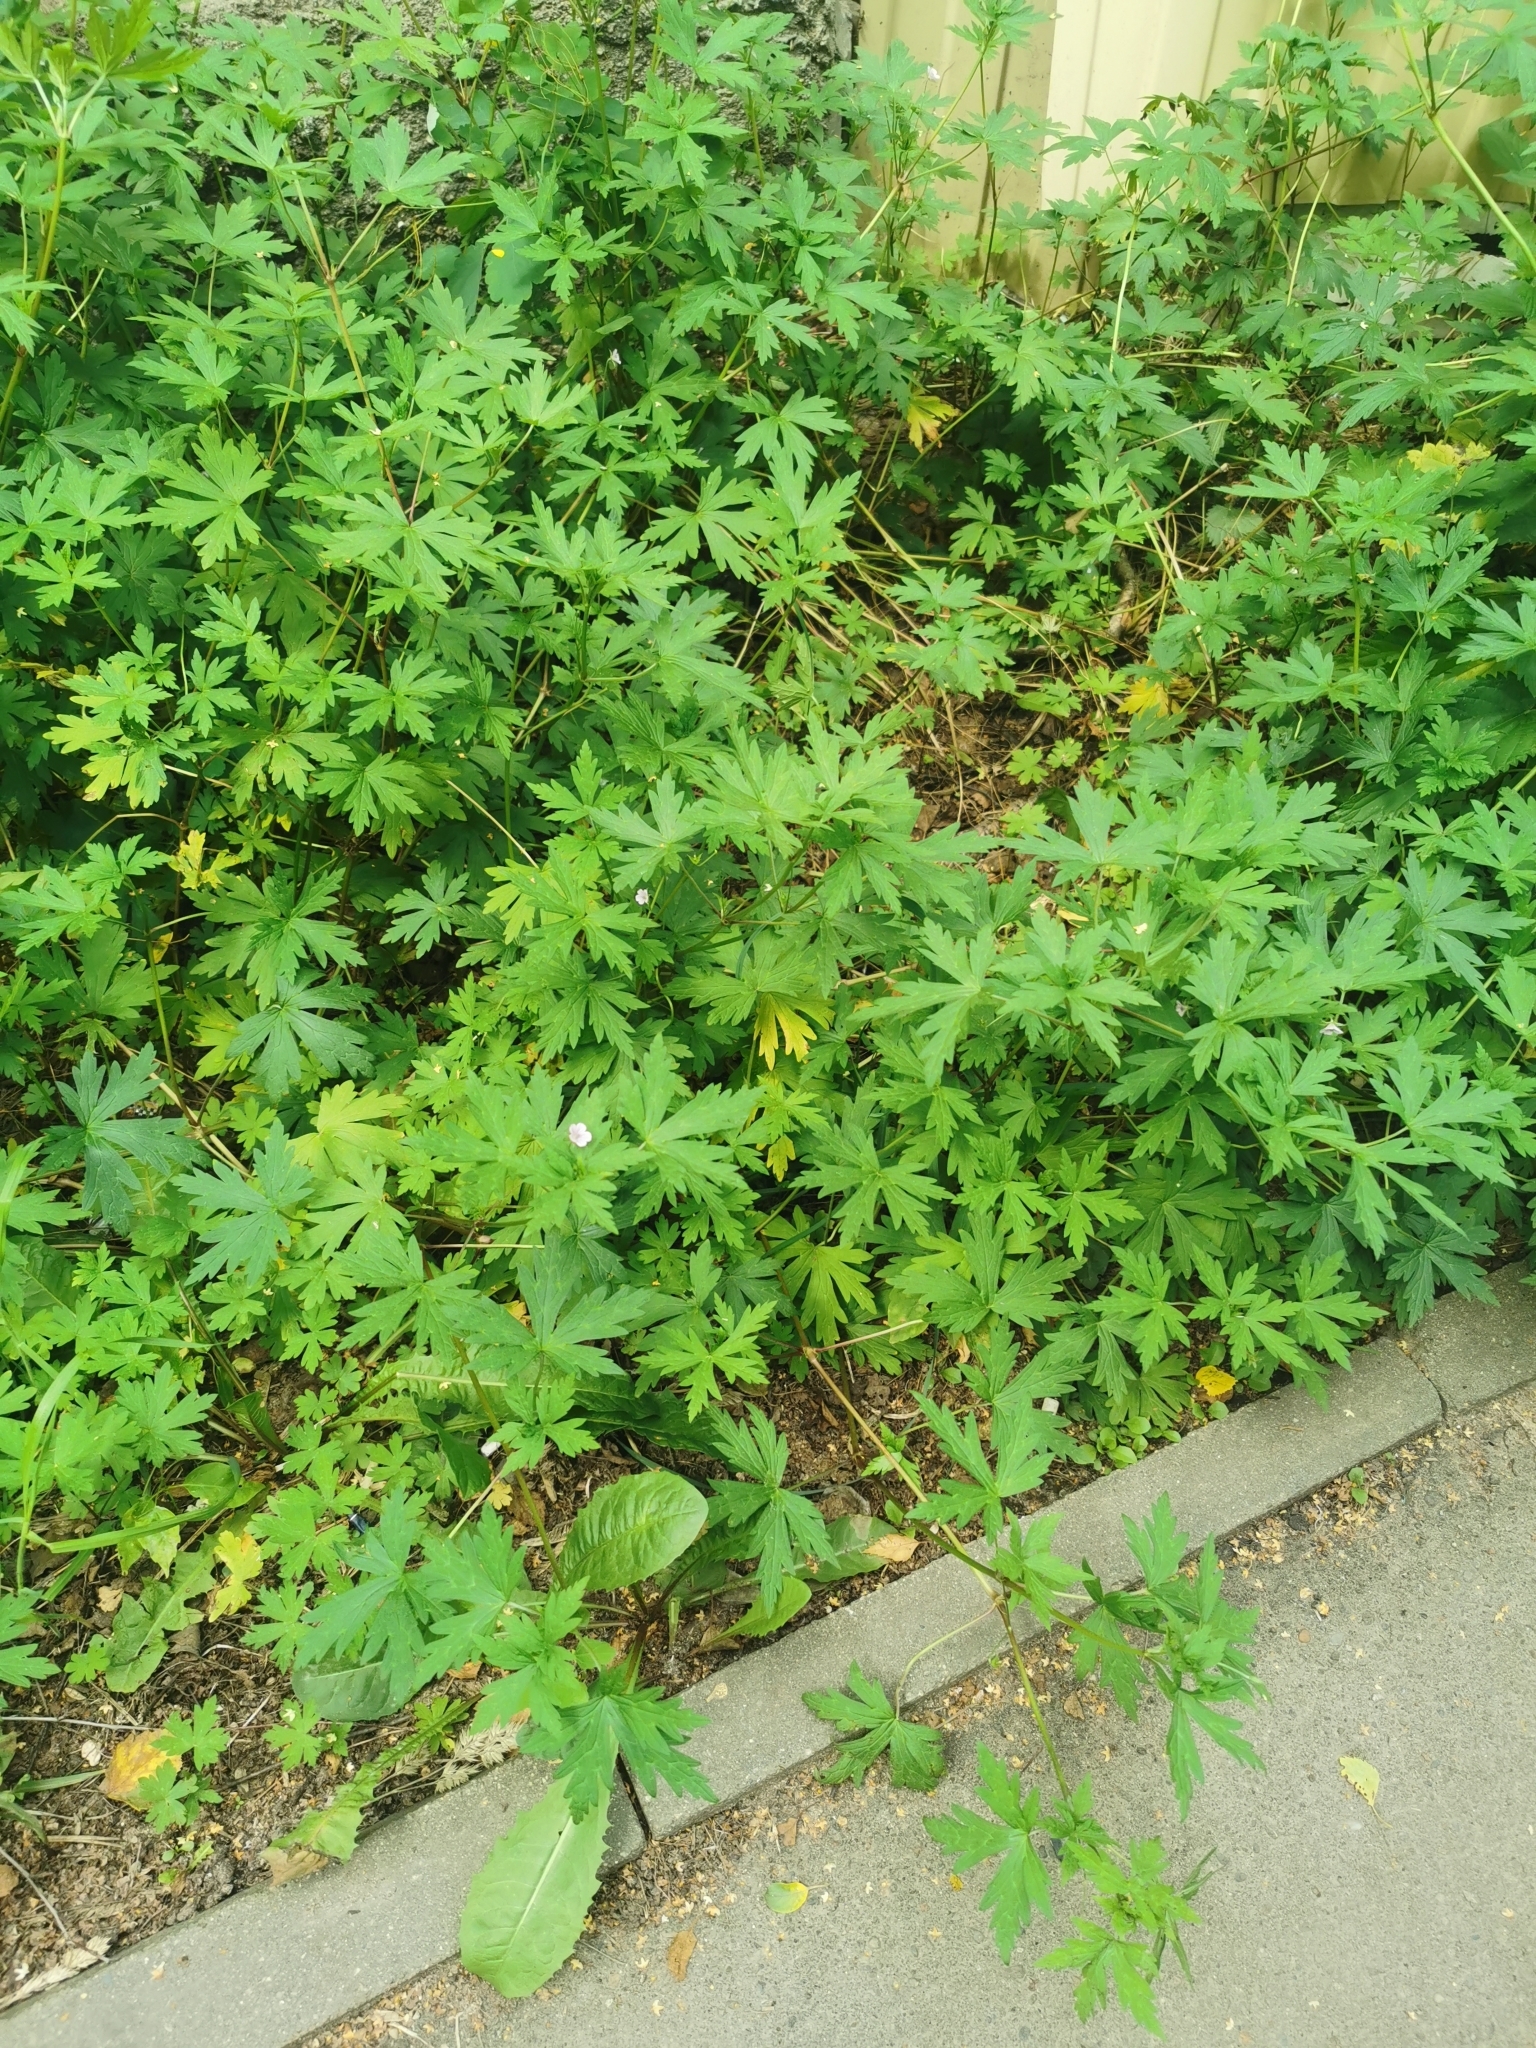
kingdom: Plantae
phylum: Tracheophyta
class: Magnoliopsida
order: Geraniales
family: Geraniaceae
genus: Geranium
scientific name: Geranium sibiricum
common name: Siberian crane's-bill
